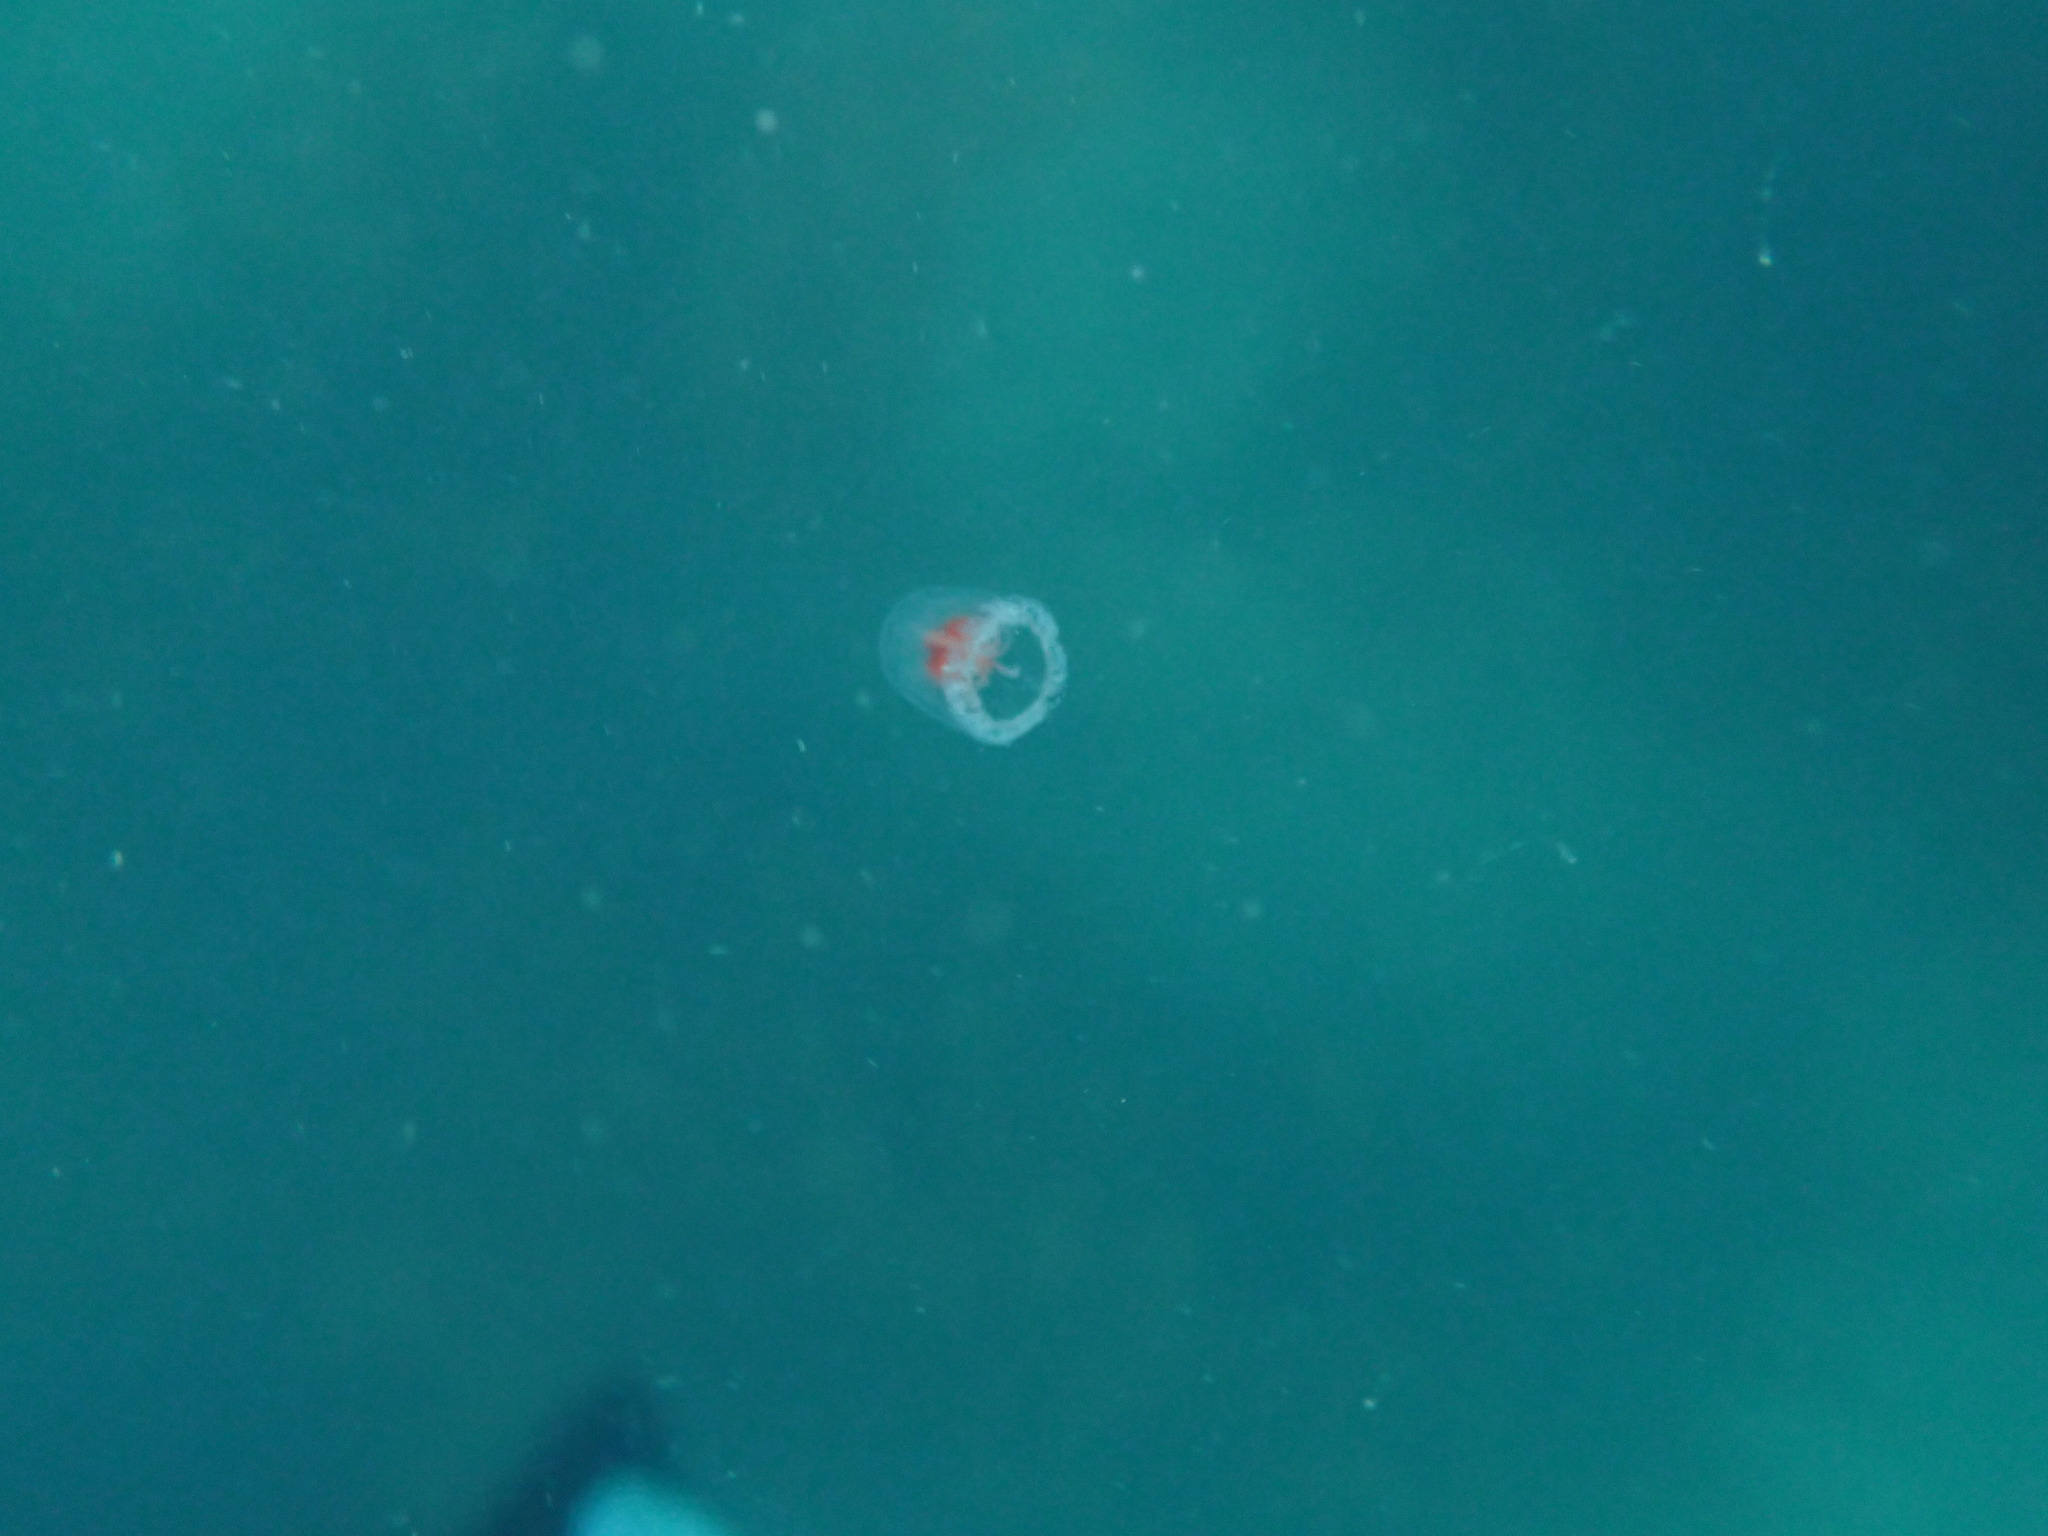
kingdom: Animalia
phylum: Cnidaria
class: Hydrozoa
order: Anthoathecata
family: Oceaniidae
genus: Turritopsis
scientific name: Turritopsis rubra
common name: Crimson jelly
